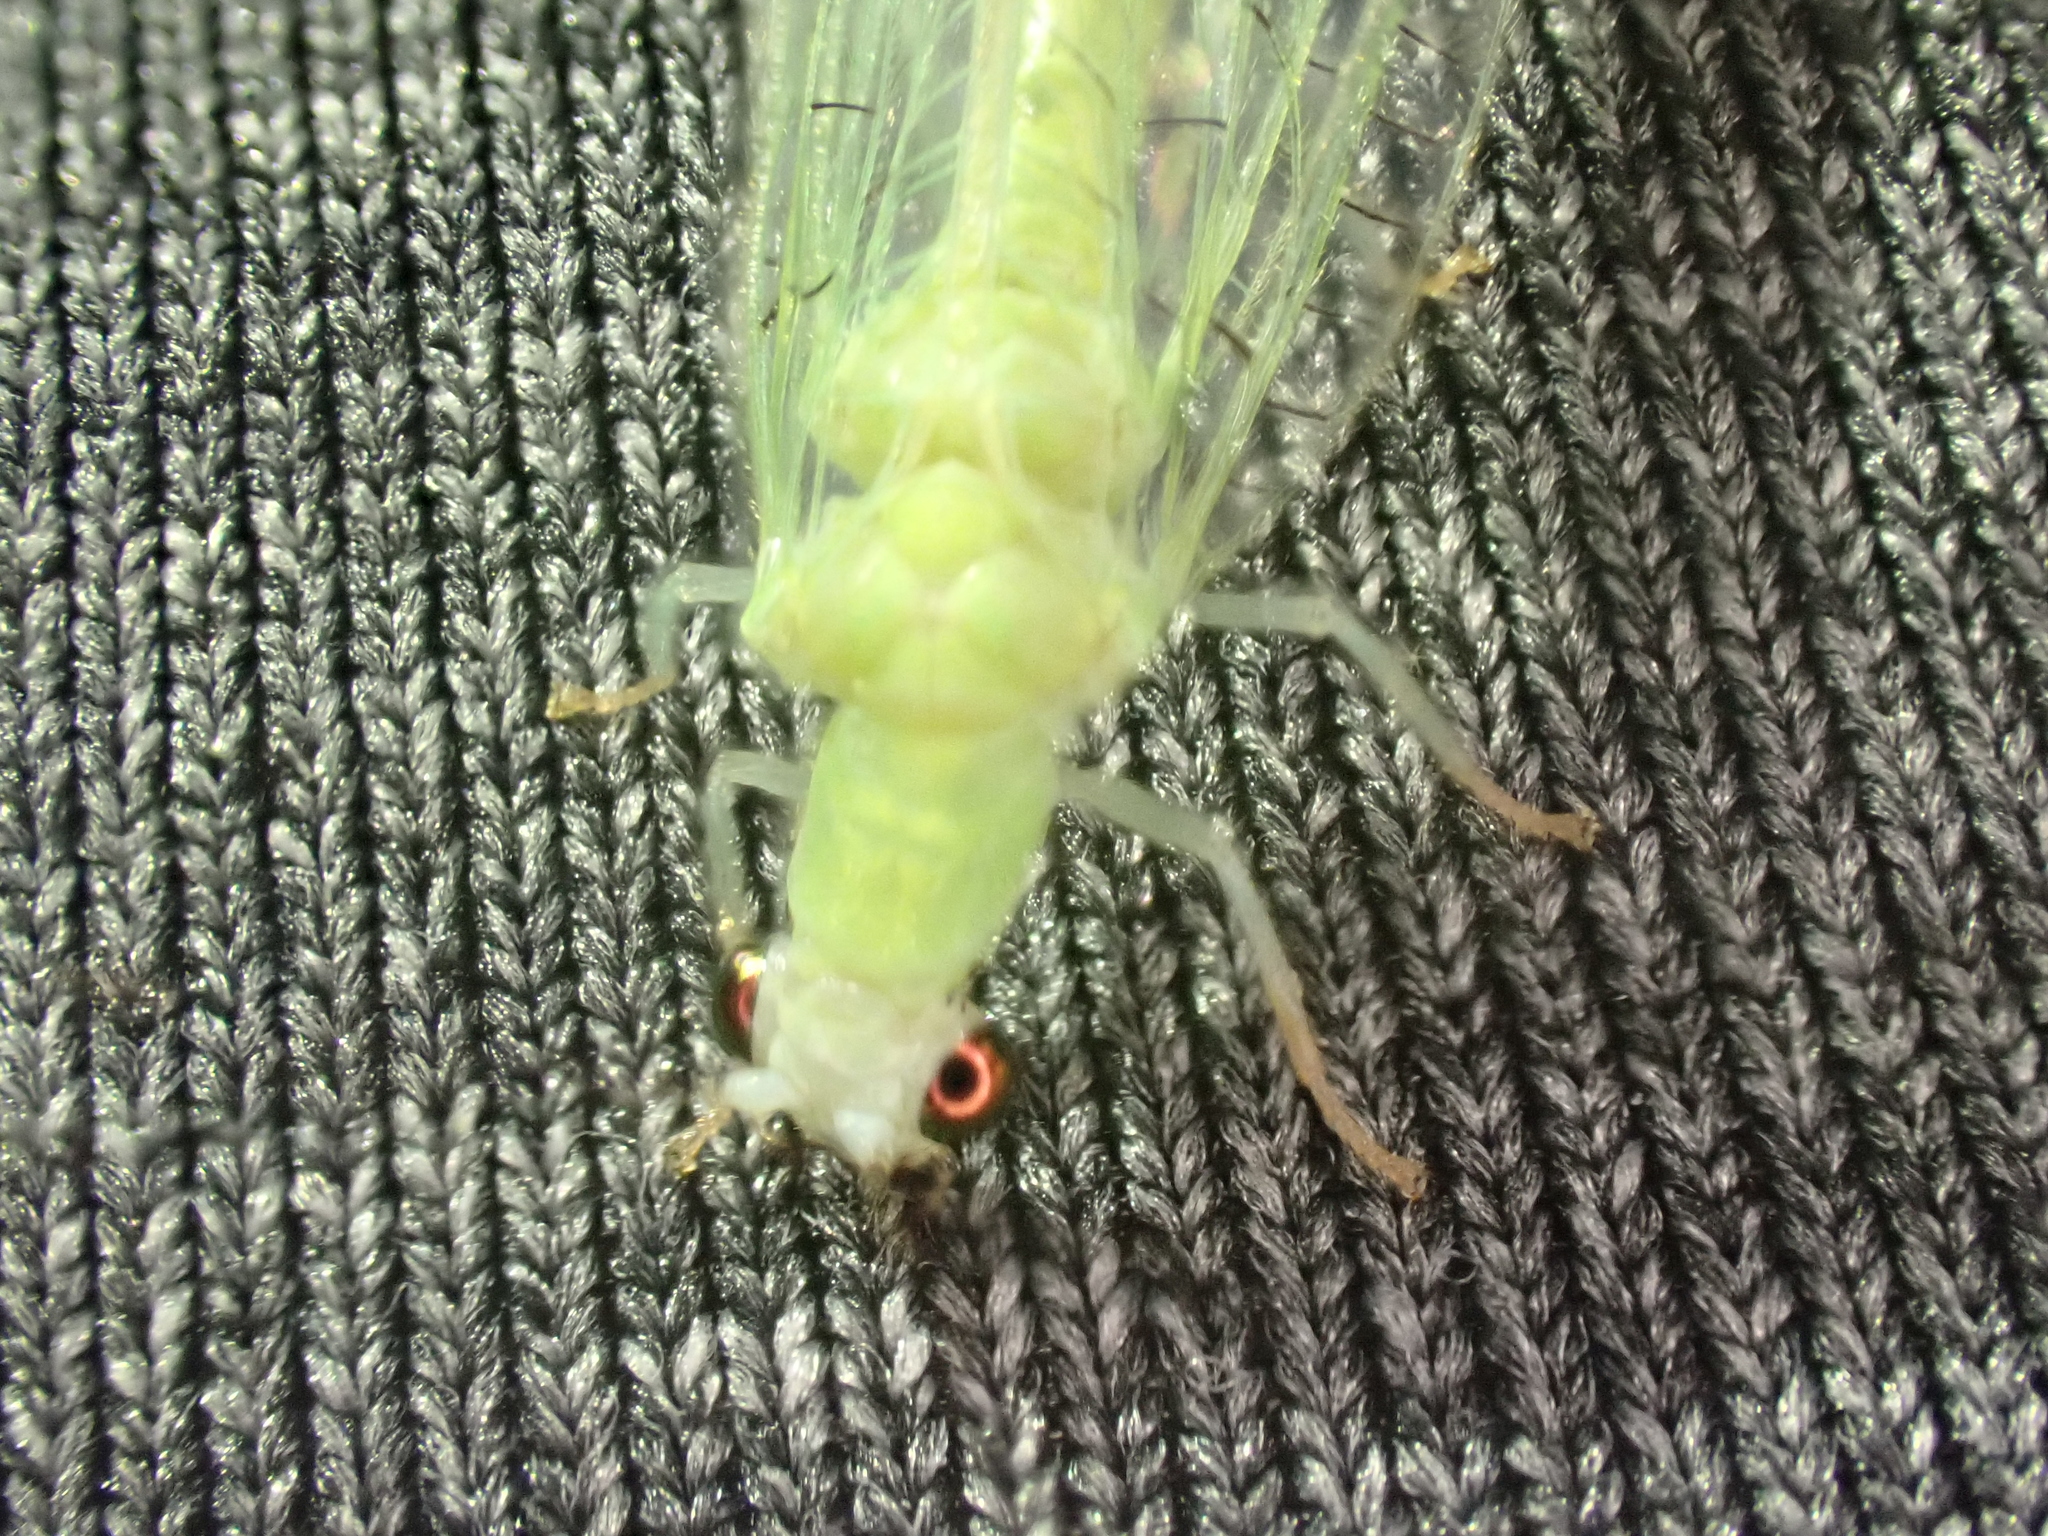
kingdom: Animalia
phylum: Arthropoda
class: Insecta
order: Neuroptera
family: Chrysopidae
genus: Chrysopa
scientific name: Chrysopa nigricornis
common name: Black-horned green lacewing
